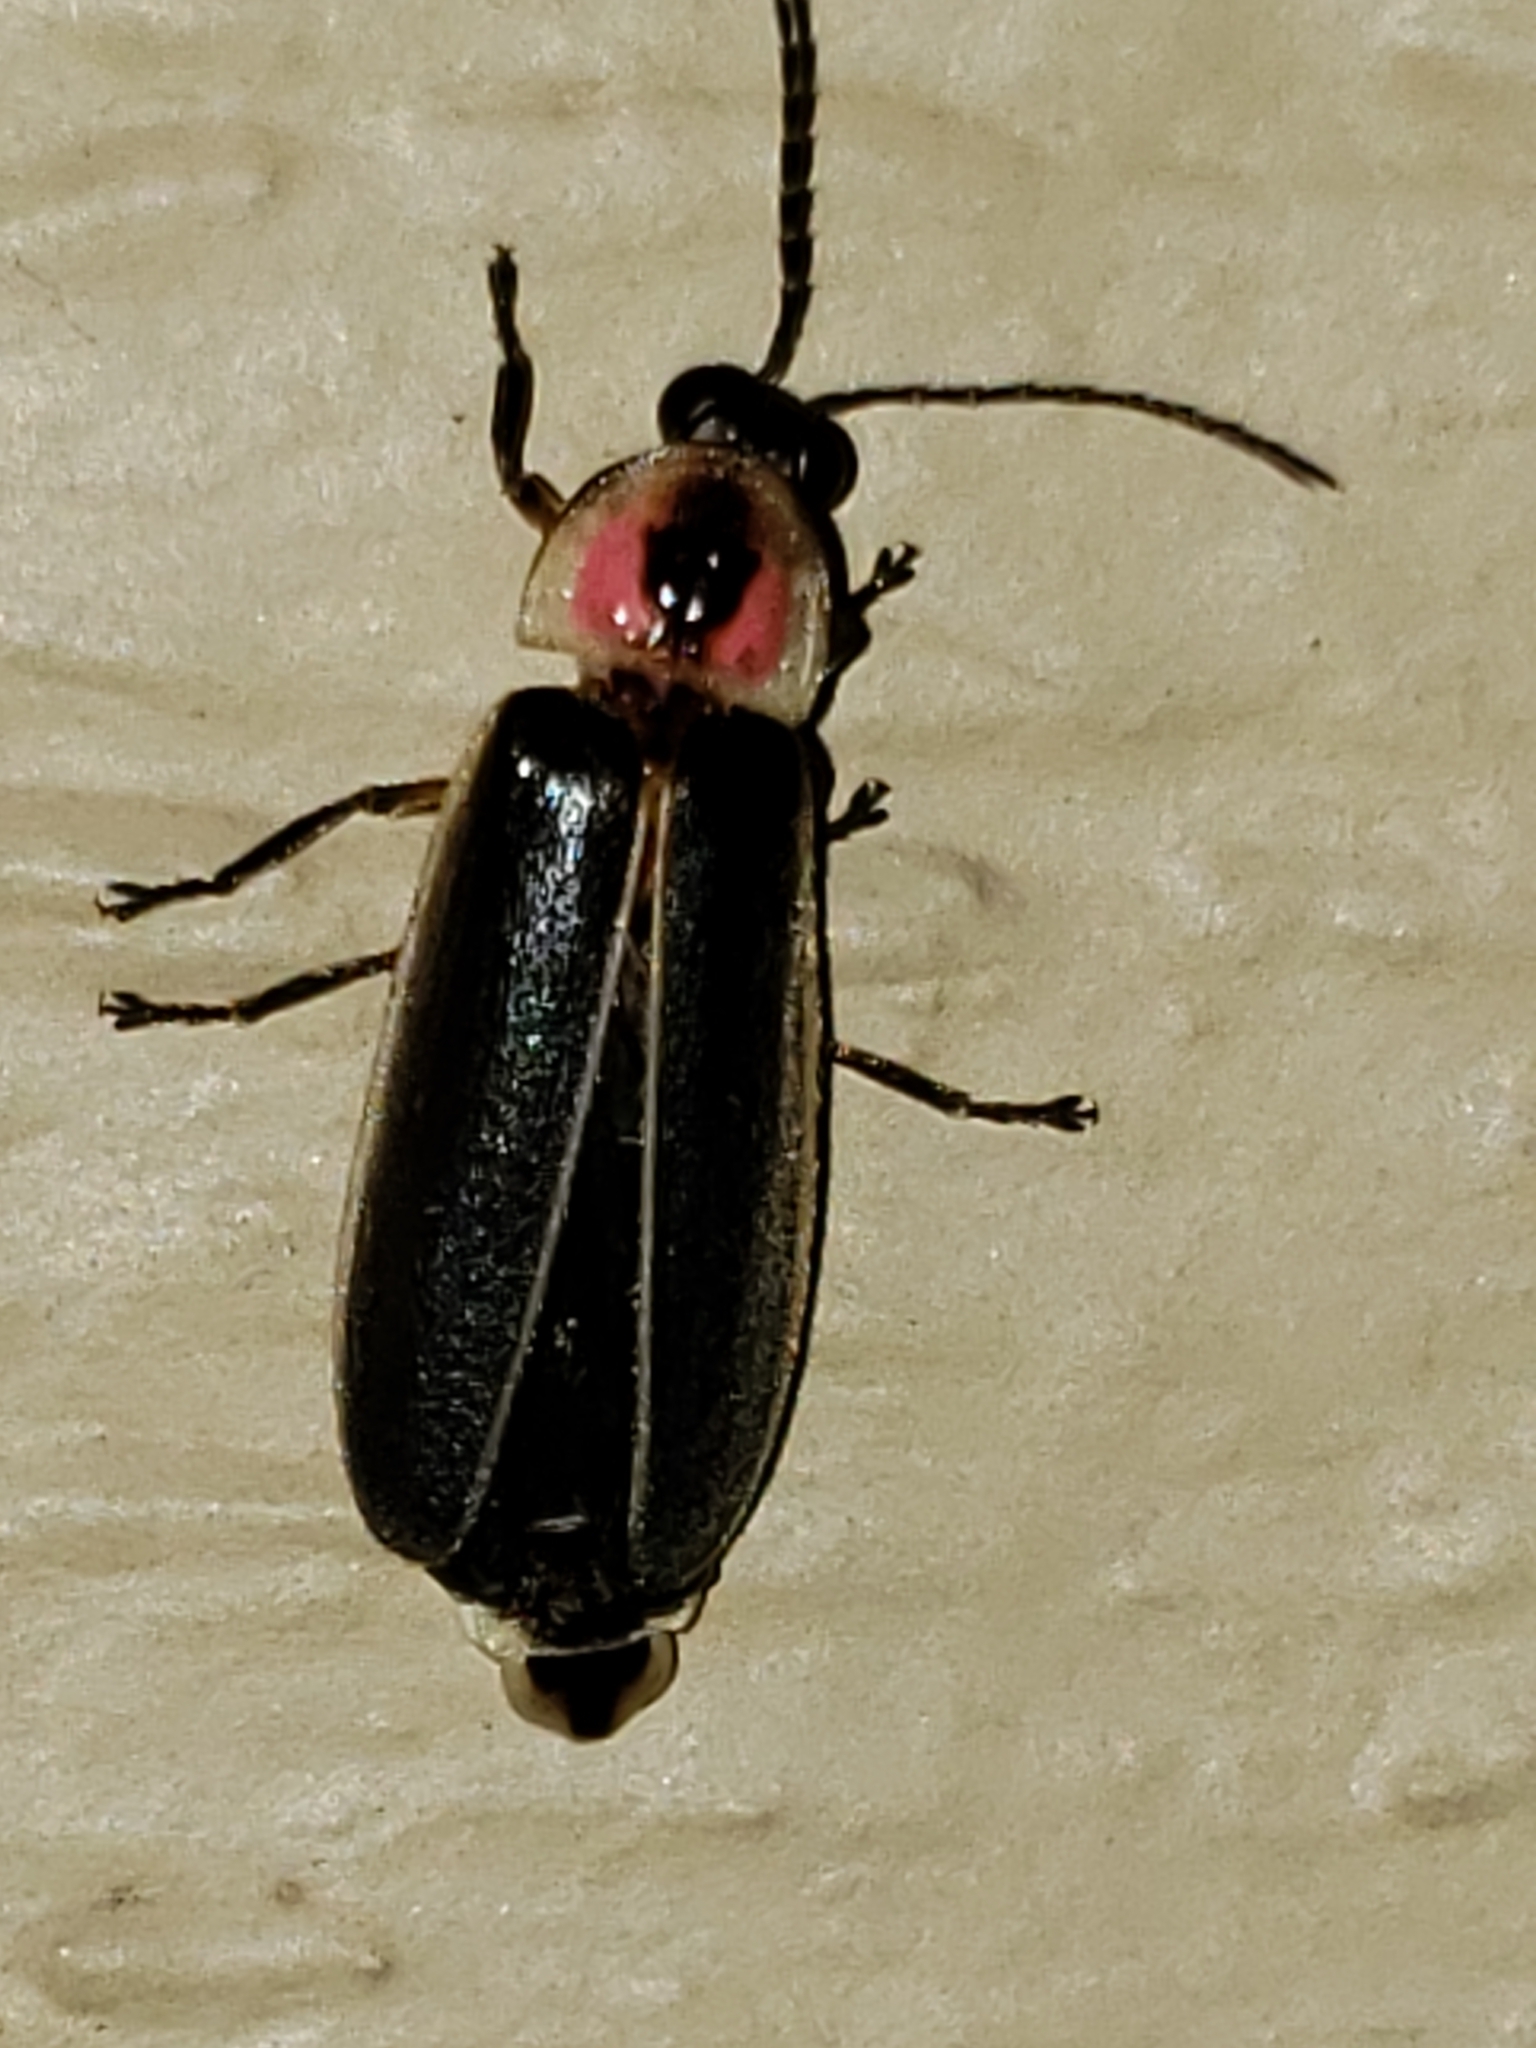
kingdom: Animalia
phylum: Arthropoda
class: Insecta
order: Coleoptera
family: Lampyridae
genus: Photinus
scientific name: Photinus pyralis
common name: Big dipper firefly
